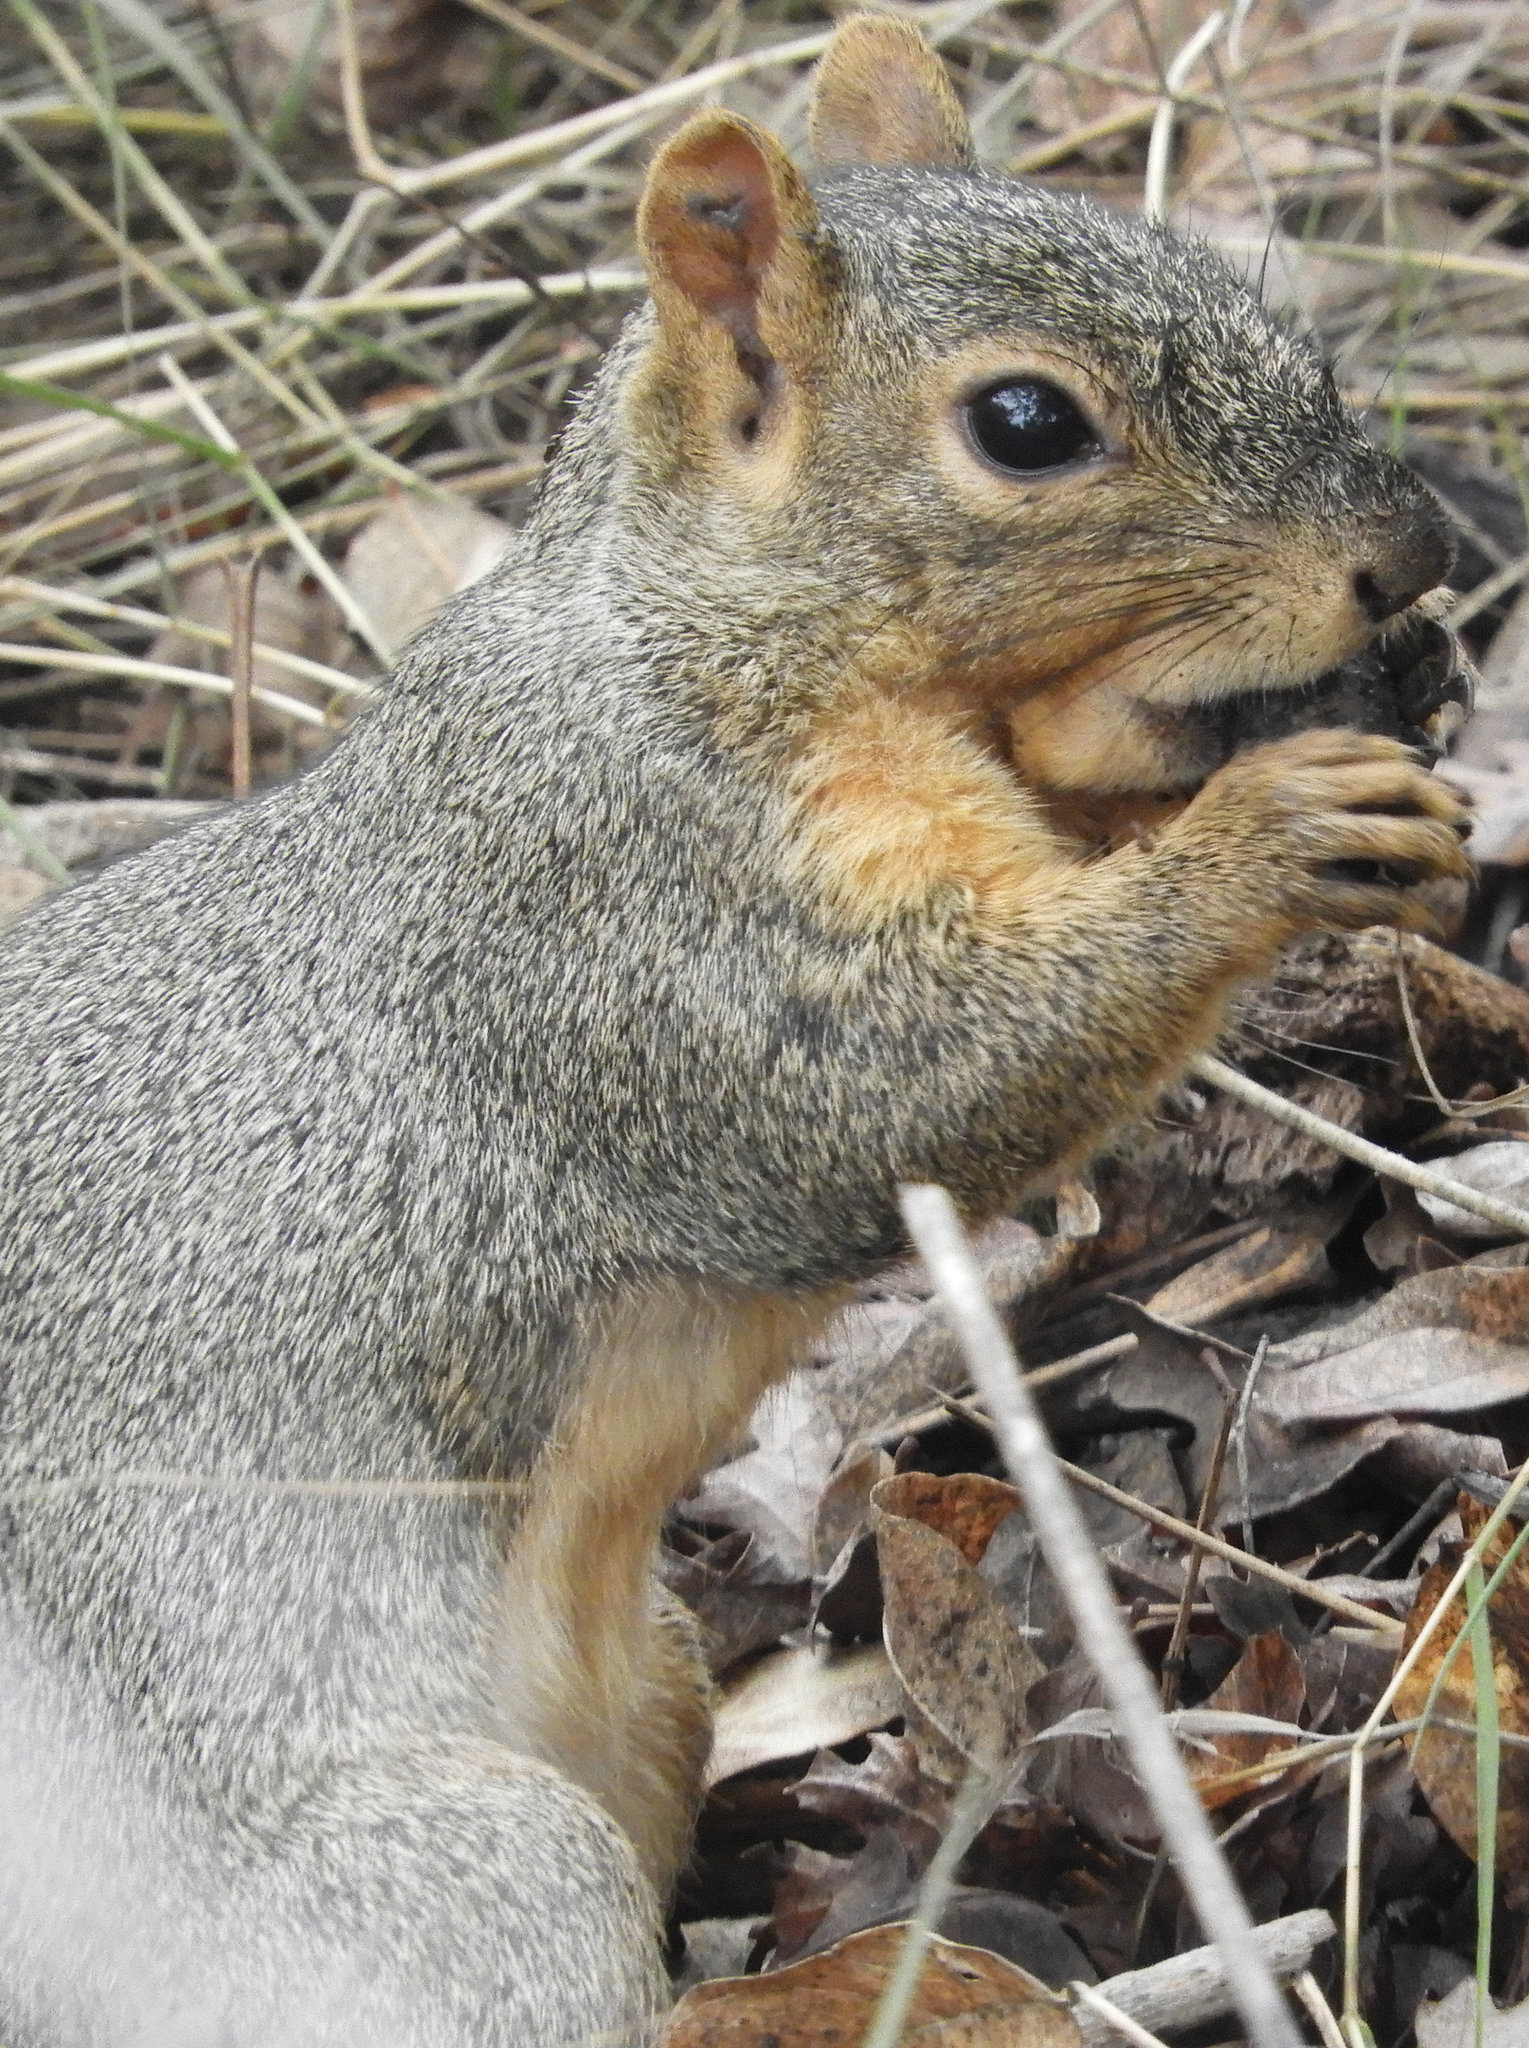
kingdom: Animalia
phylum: Chordata
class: Mammalia
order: Rodentia
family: Sciuridae
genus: Sciurus
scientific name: Sciurus niger
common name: Fox squirrel
